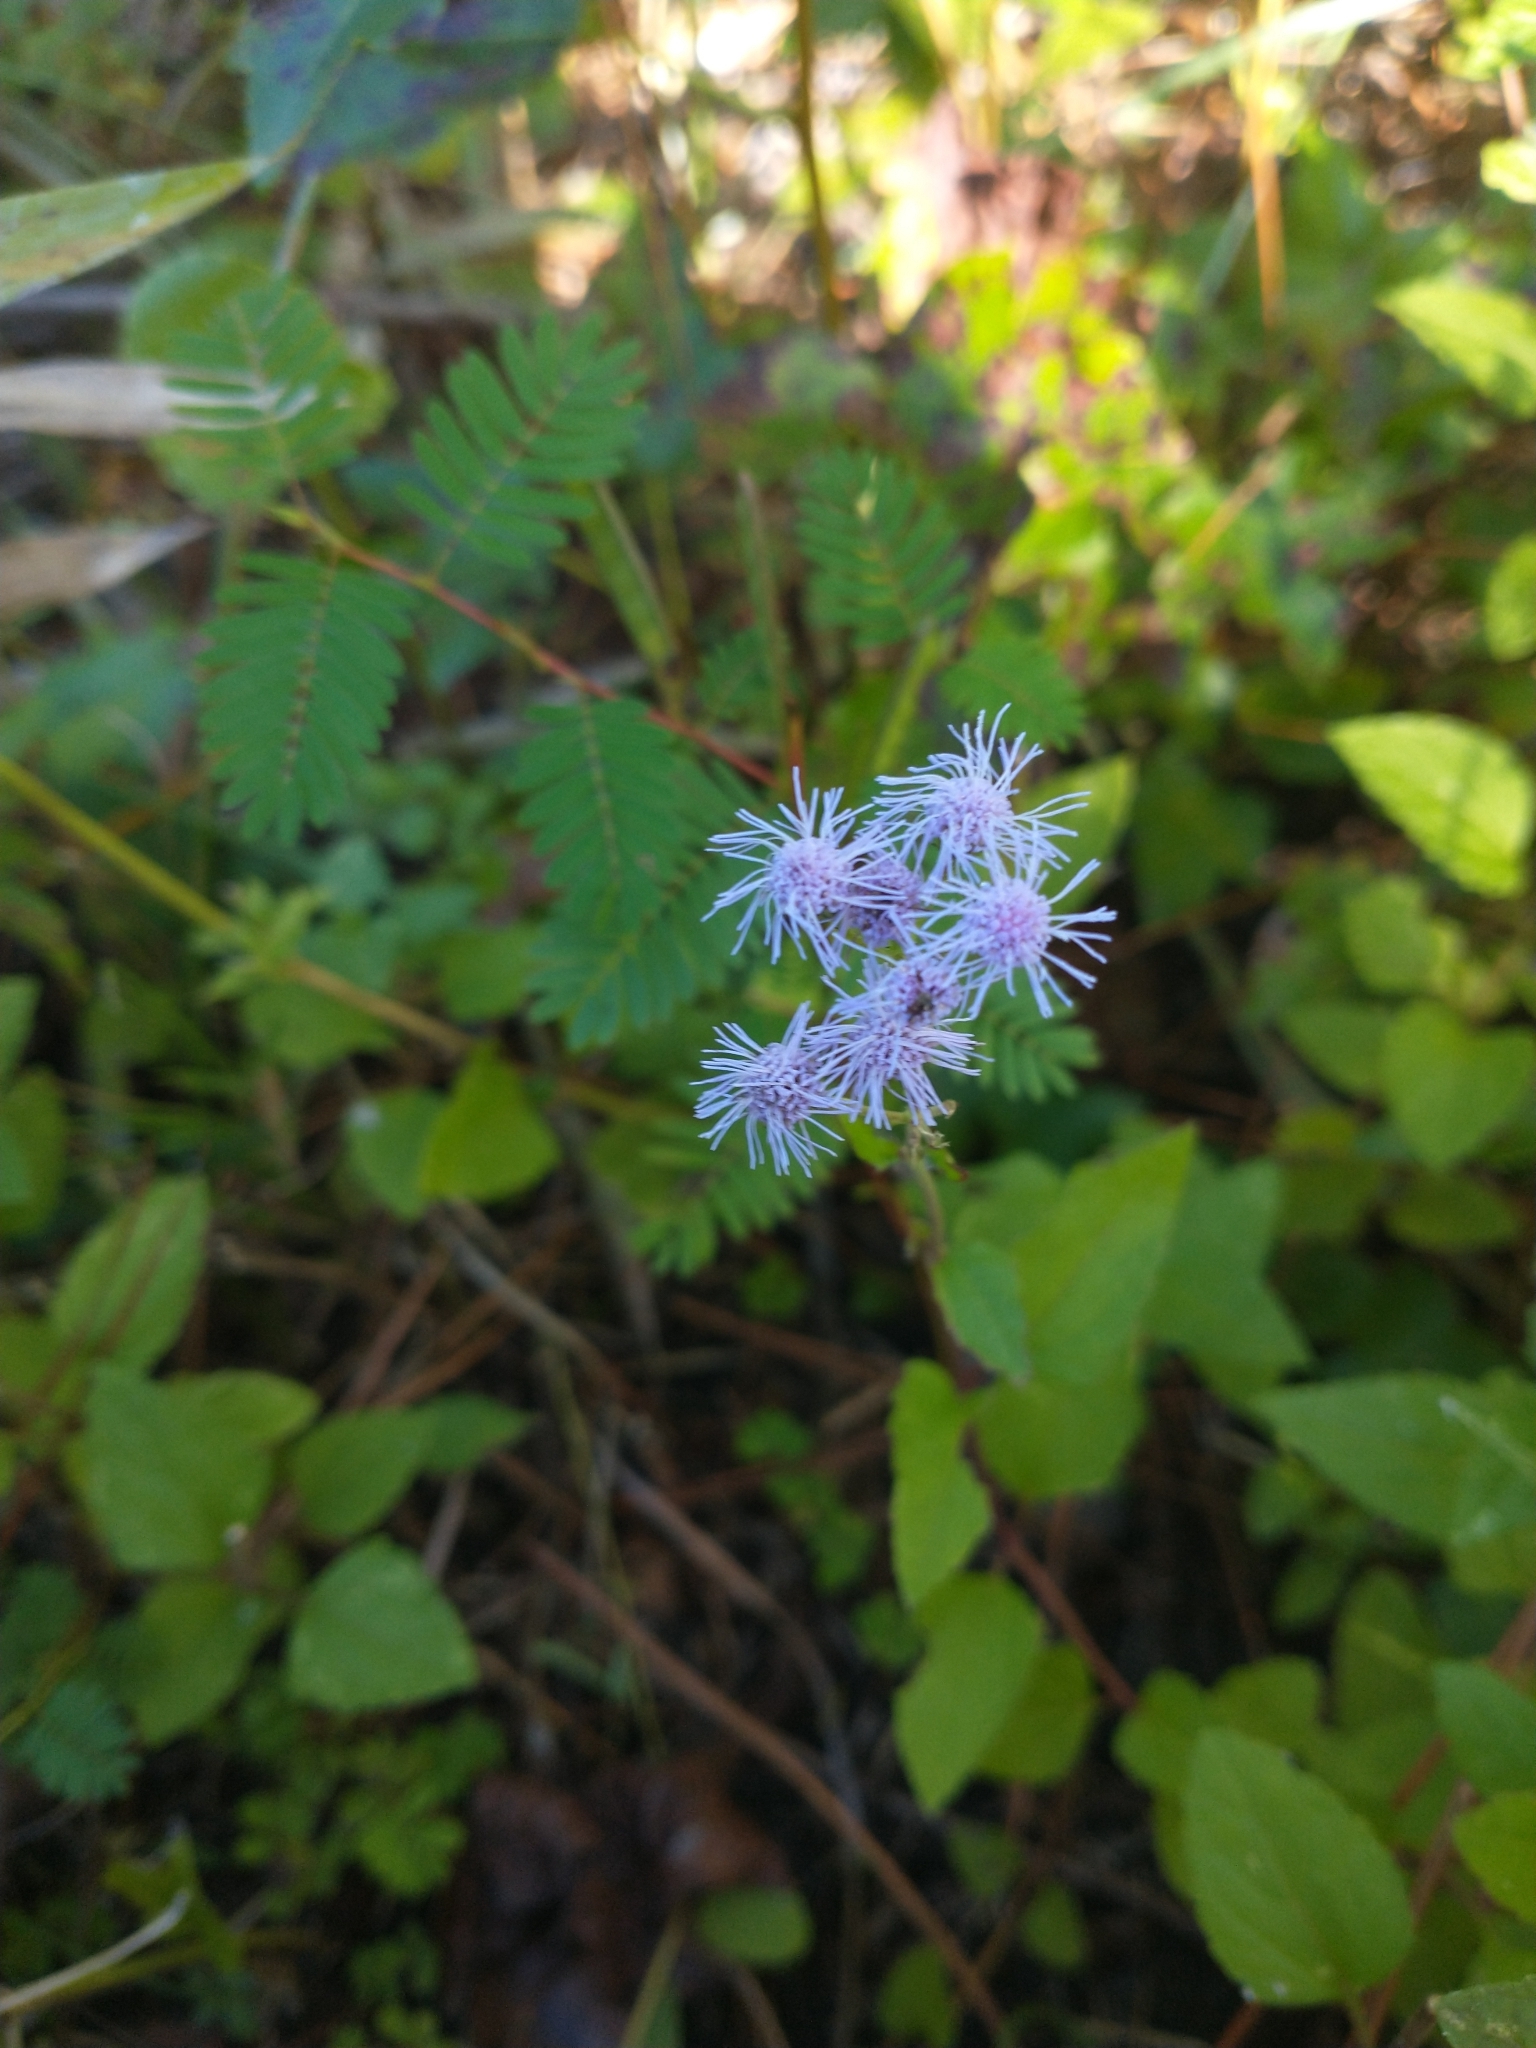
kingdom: Plantae
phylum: Tracheophyta
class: Magnoliopsida
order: Asterales
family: Asteraceae
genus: Conoclinium
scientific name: Conoclinium coelestinum
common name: Blue mistflower
